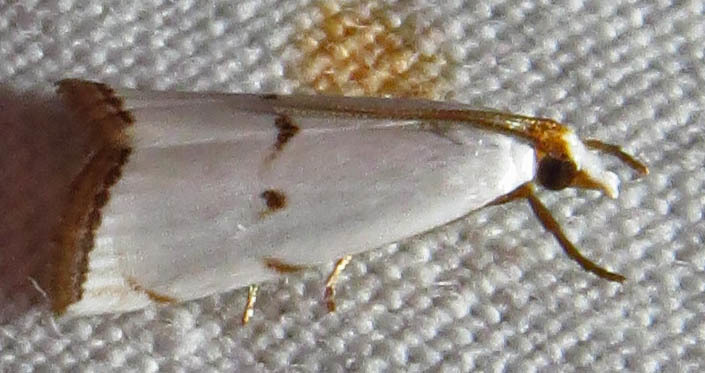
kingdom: Animalia
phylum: Arthropoda
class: Insecta
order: Lepidoptera
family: Crambidae
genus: Argyria
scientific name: Argyria pusillalis
